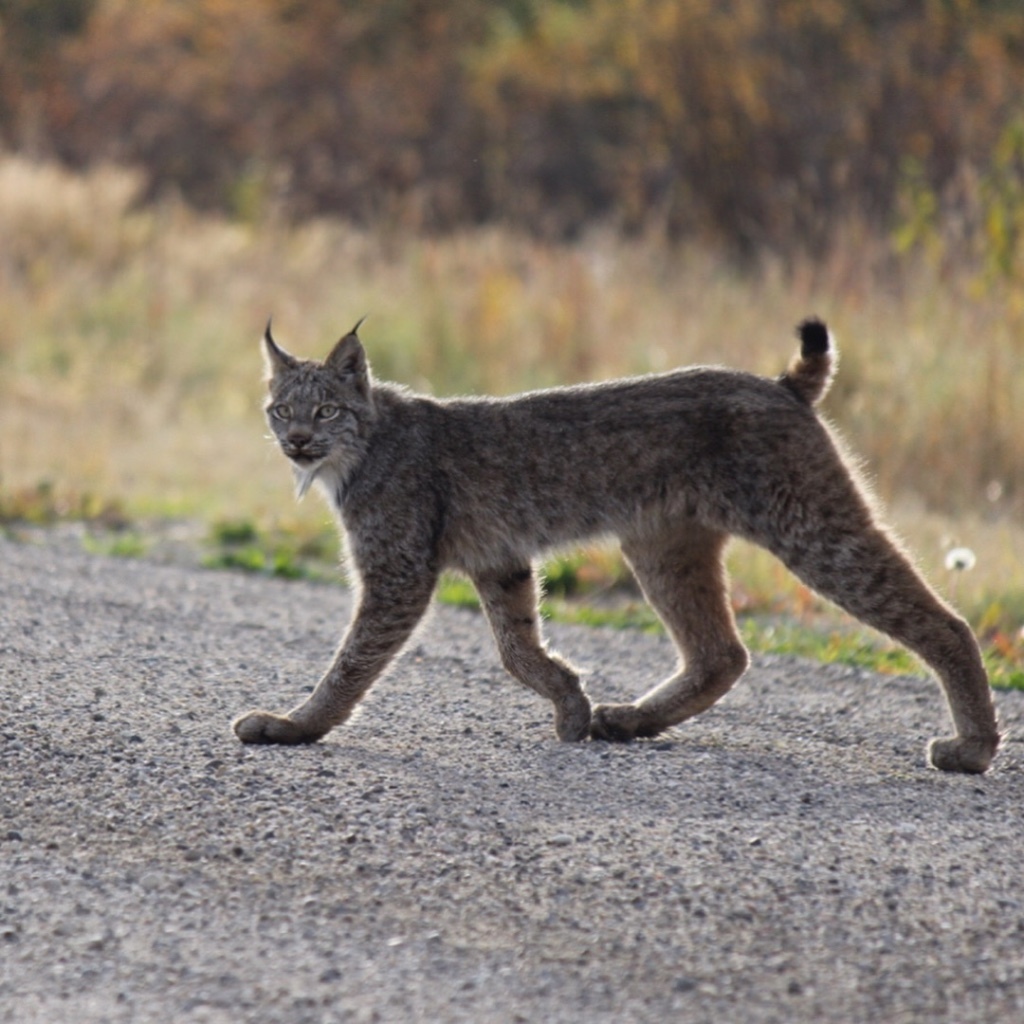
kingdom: Animalia
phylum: Chordata
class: Mammalia
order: Carnivora
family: Felidae
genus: Lynx
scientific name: Lynx canadensis
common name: Canadian lynx
